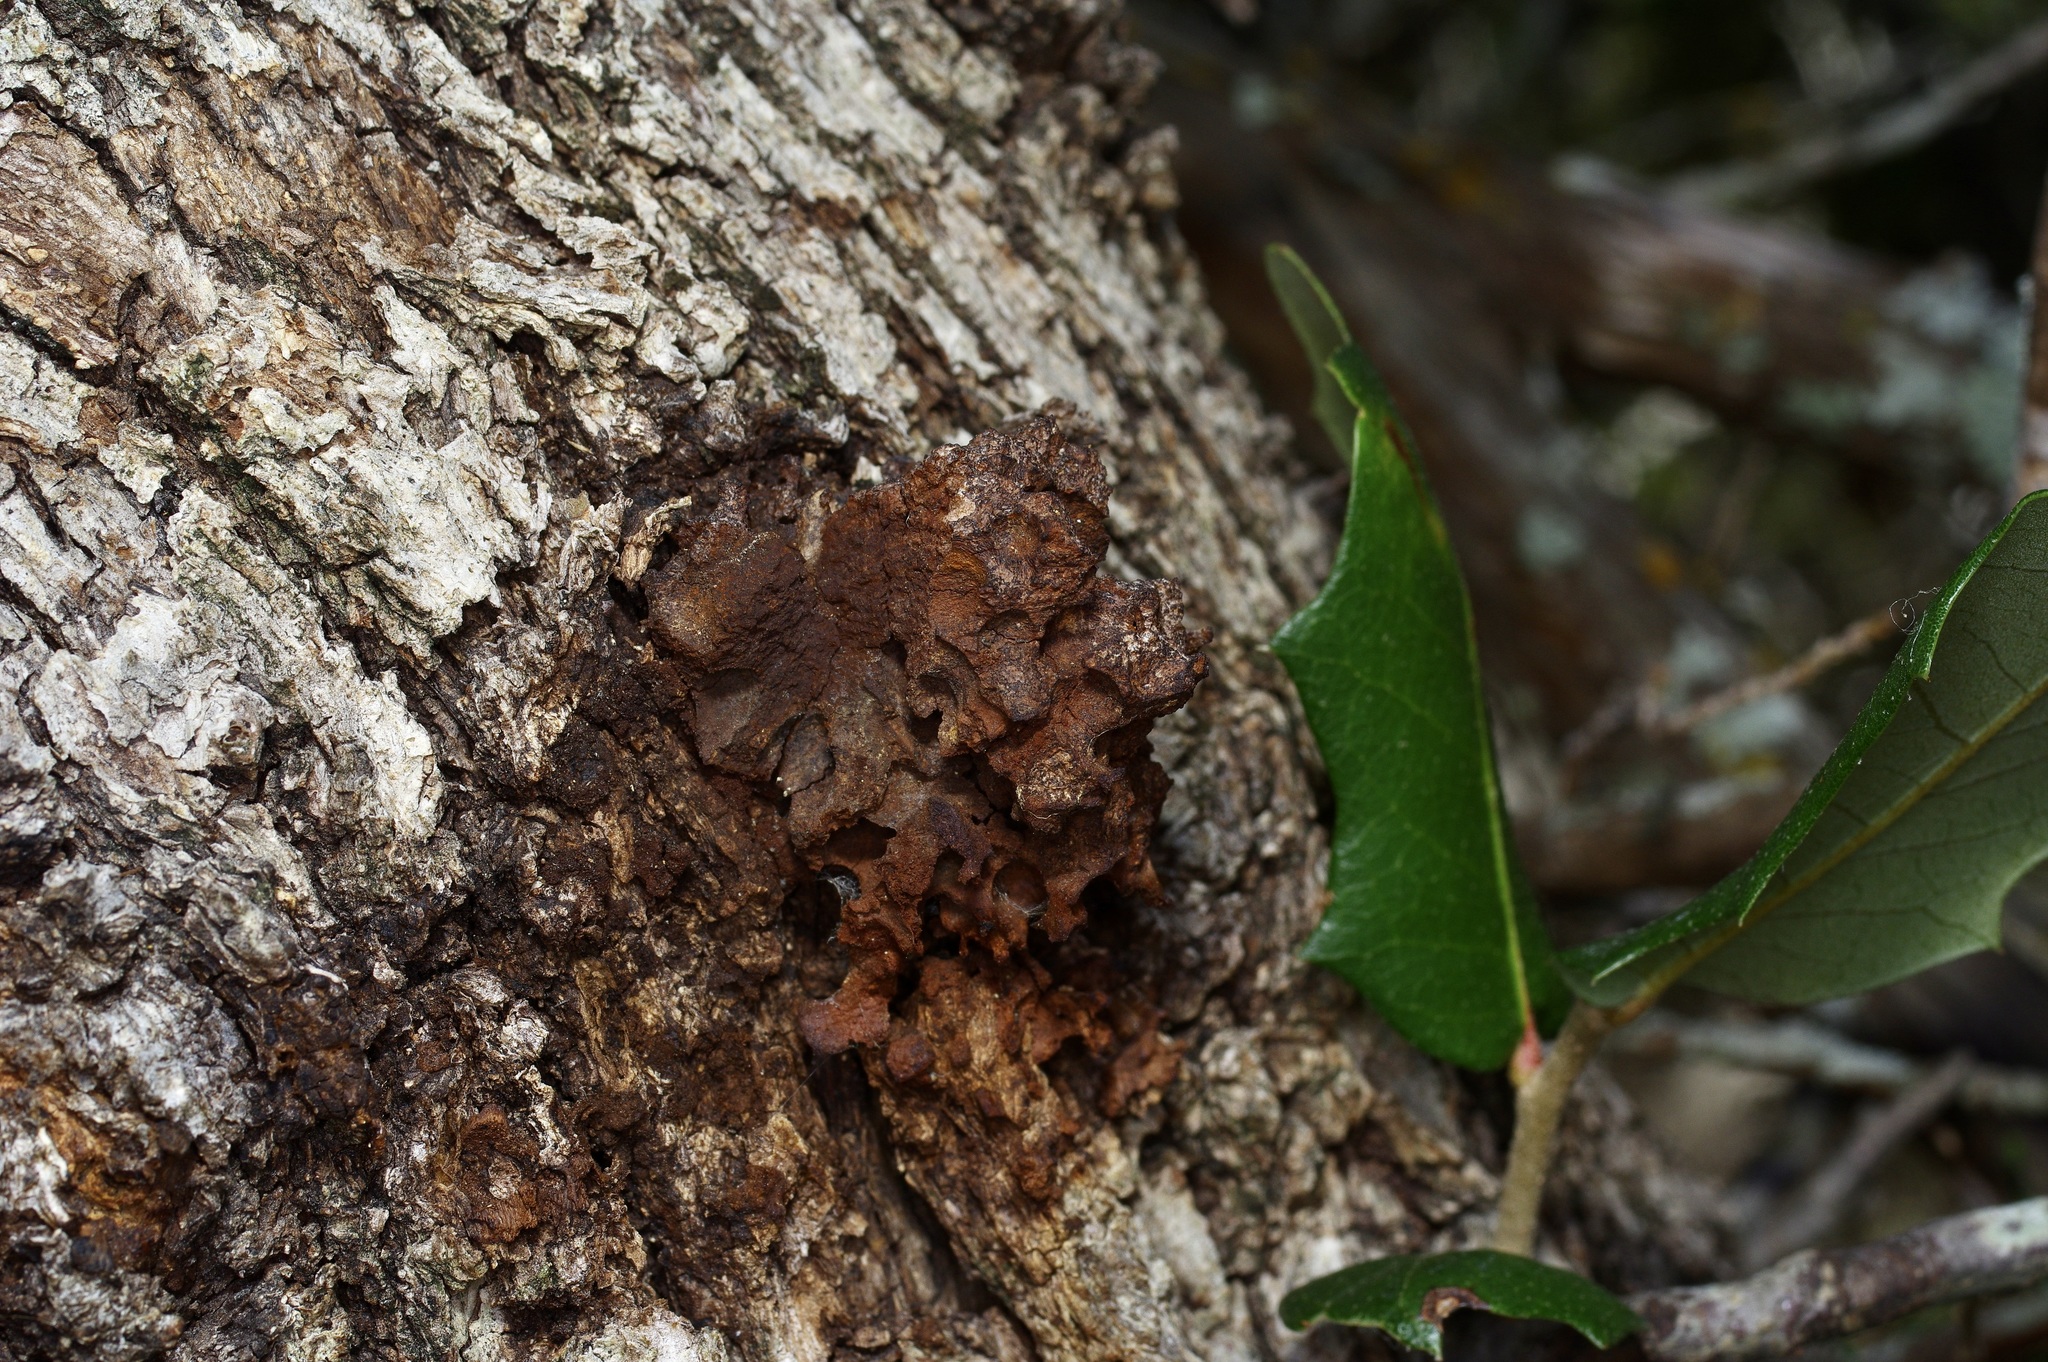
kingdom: Plantae
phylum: Tracheophyta
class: Magnoliopsida
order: Fagales
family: Fagaceae
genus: Quercus
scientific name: Quercus fusiformis
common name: Texas live oak
